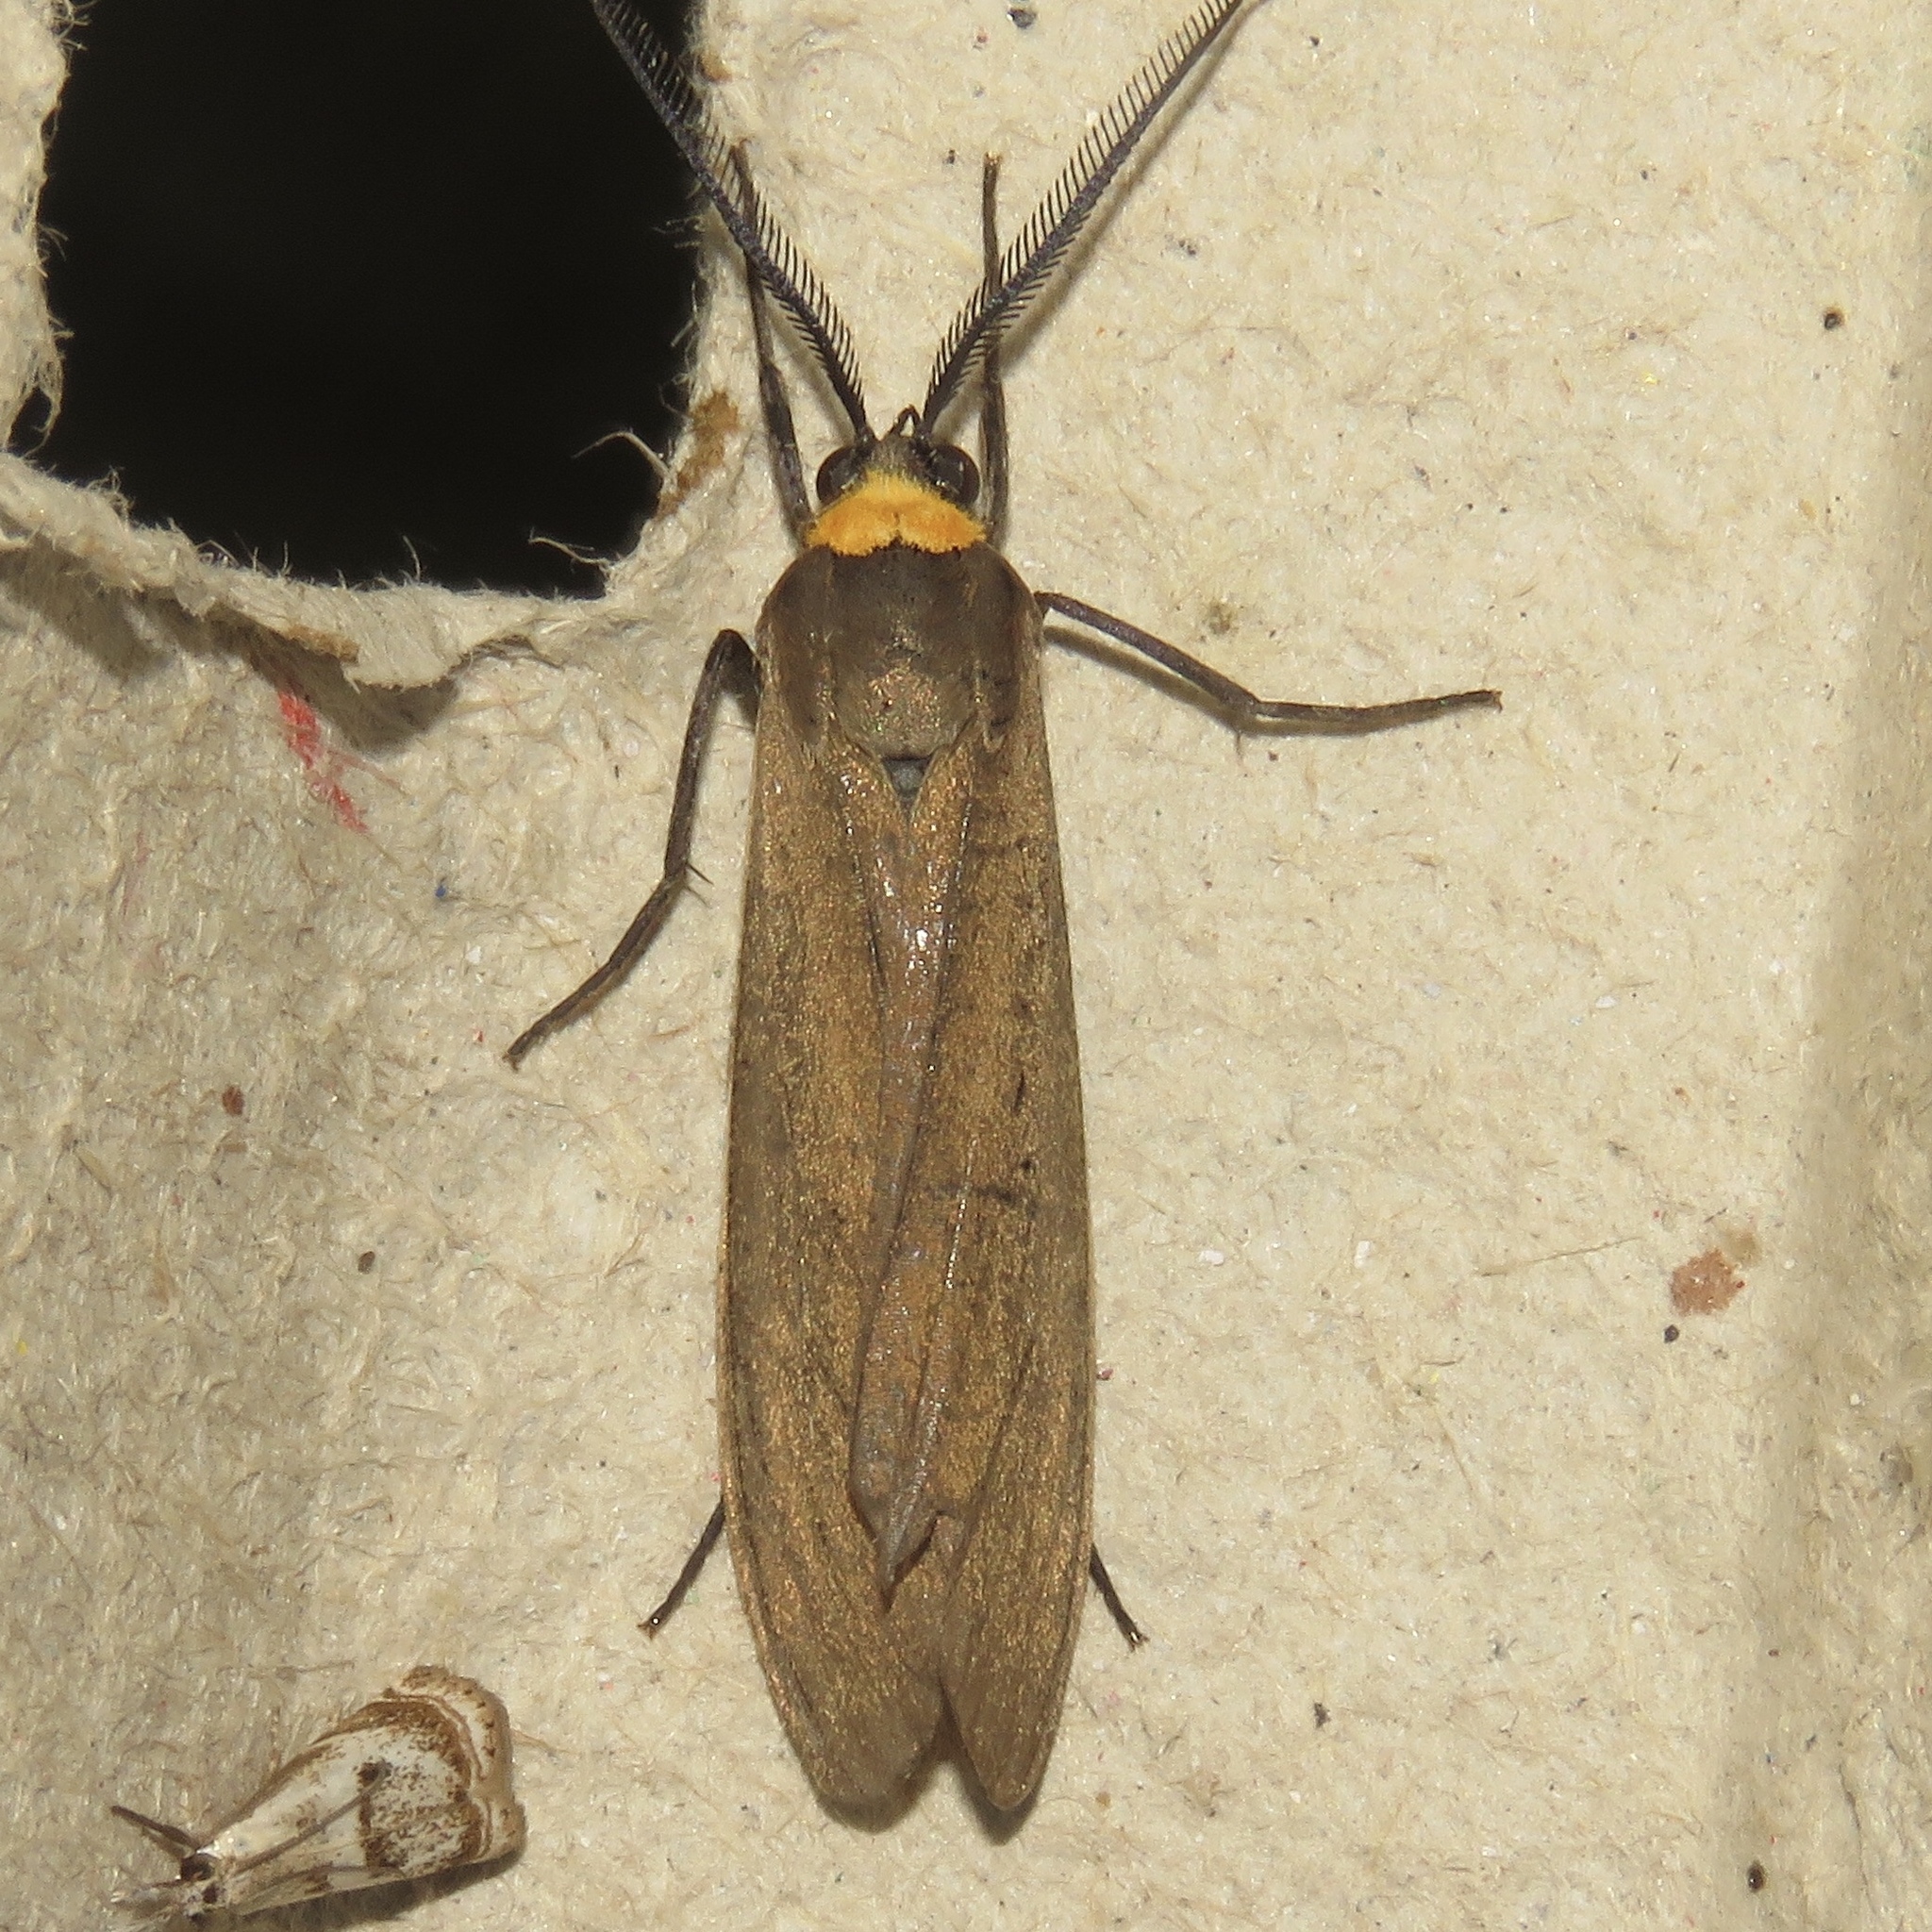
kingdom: Animalia
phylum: Arthropoda
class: Insecta
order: Lepidoptera
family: Erebidae
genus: Cisseps
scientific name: Cisseps fulvicollis
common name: Yellow-collared scape moth
